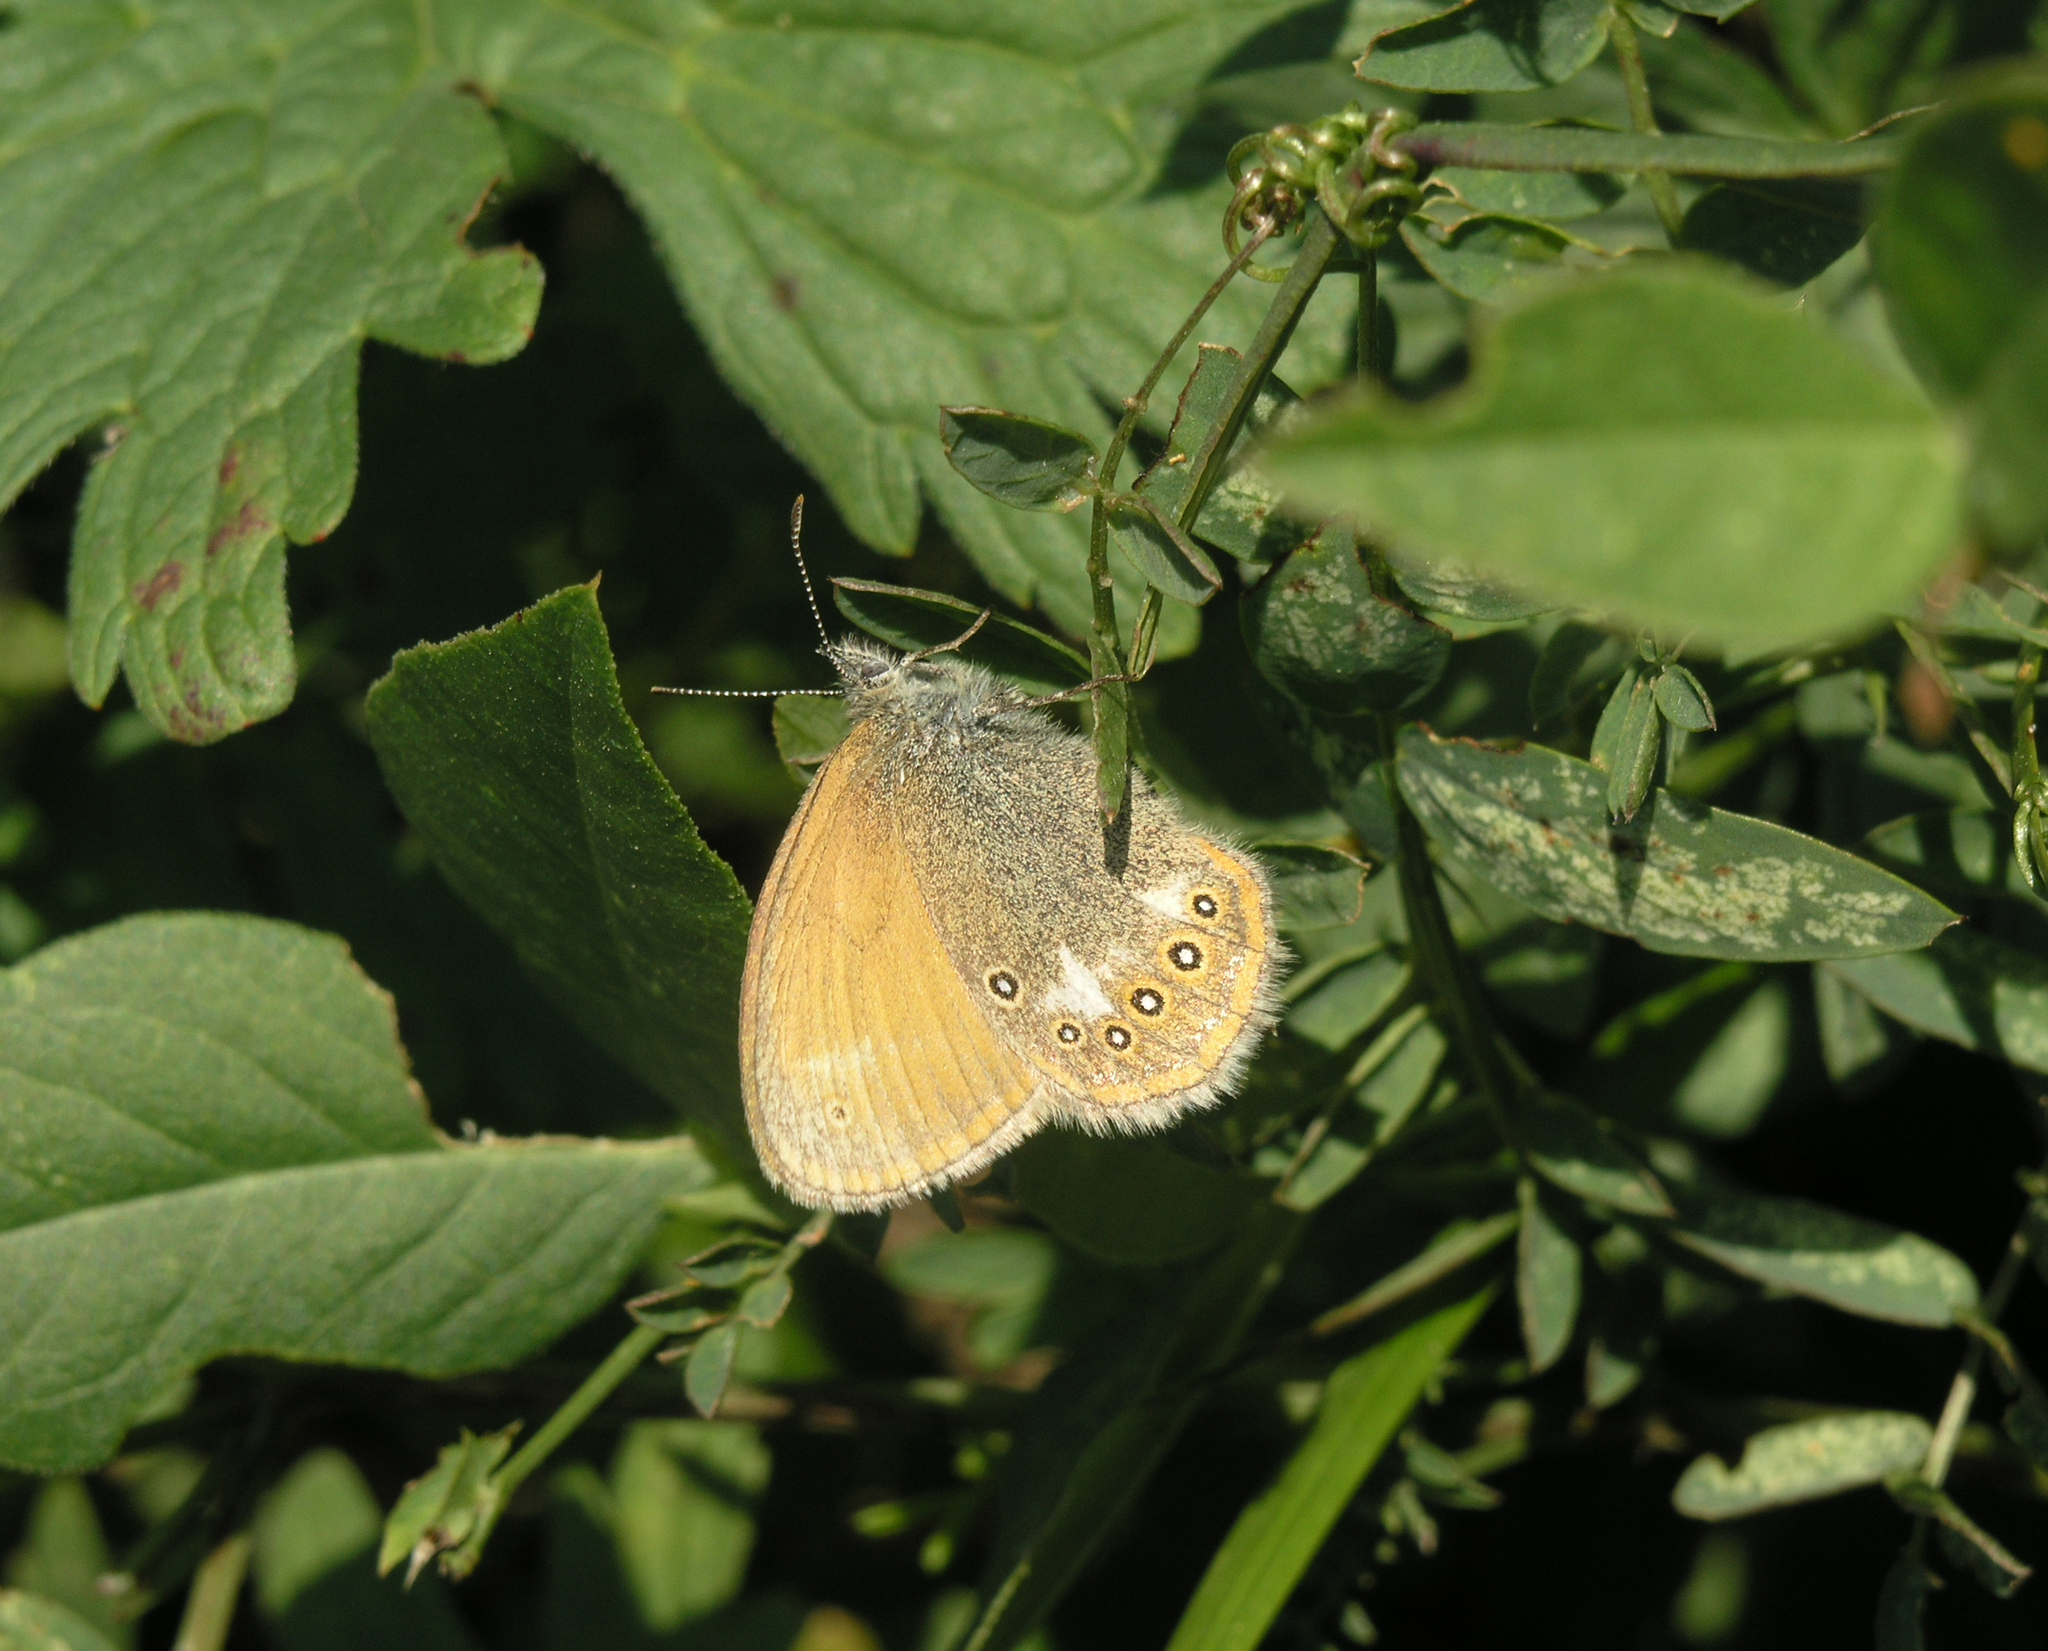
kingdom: Animalia
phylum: Arthropoda
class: Insecta
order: Lepidoptera
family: Nymphalidae
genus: Coenonympha
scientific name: Coenonympha iphis
